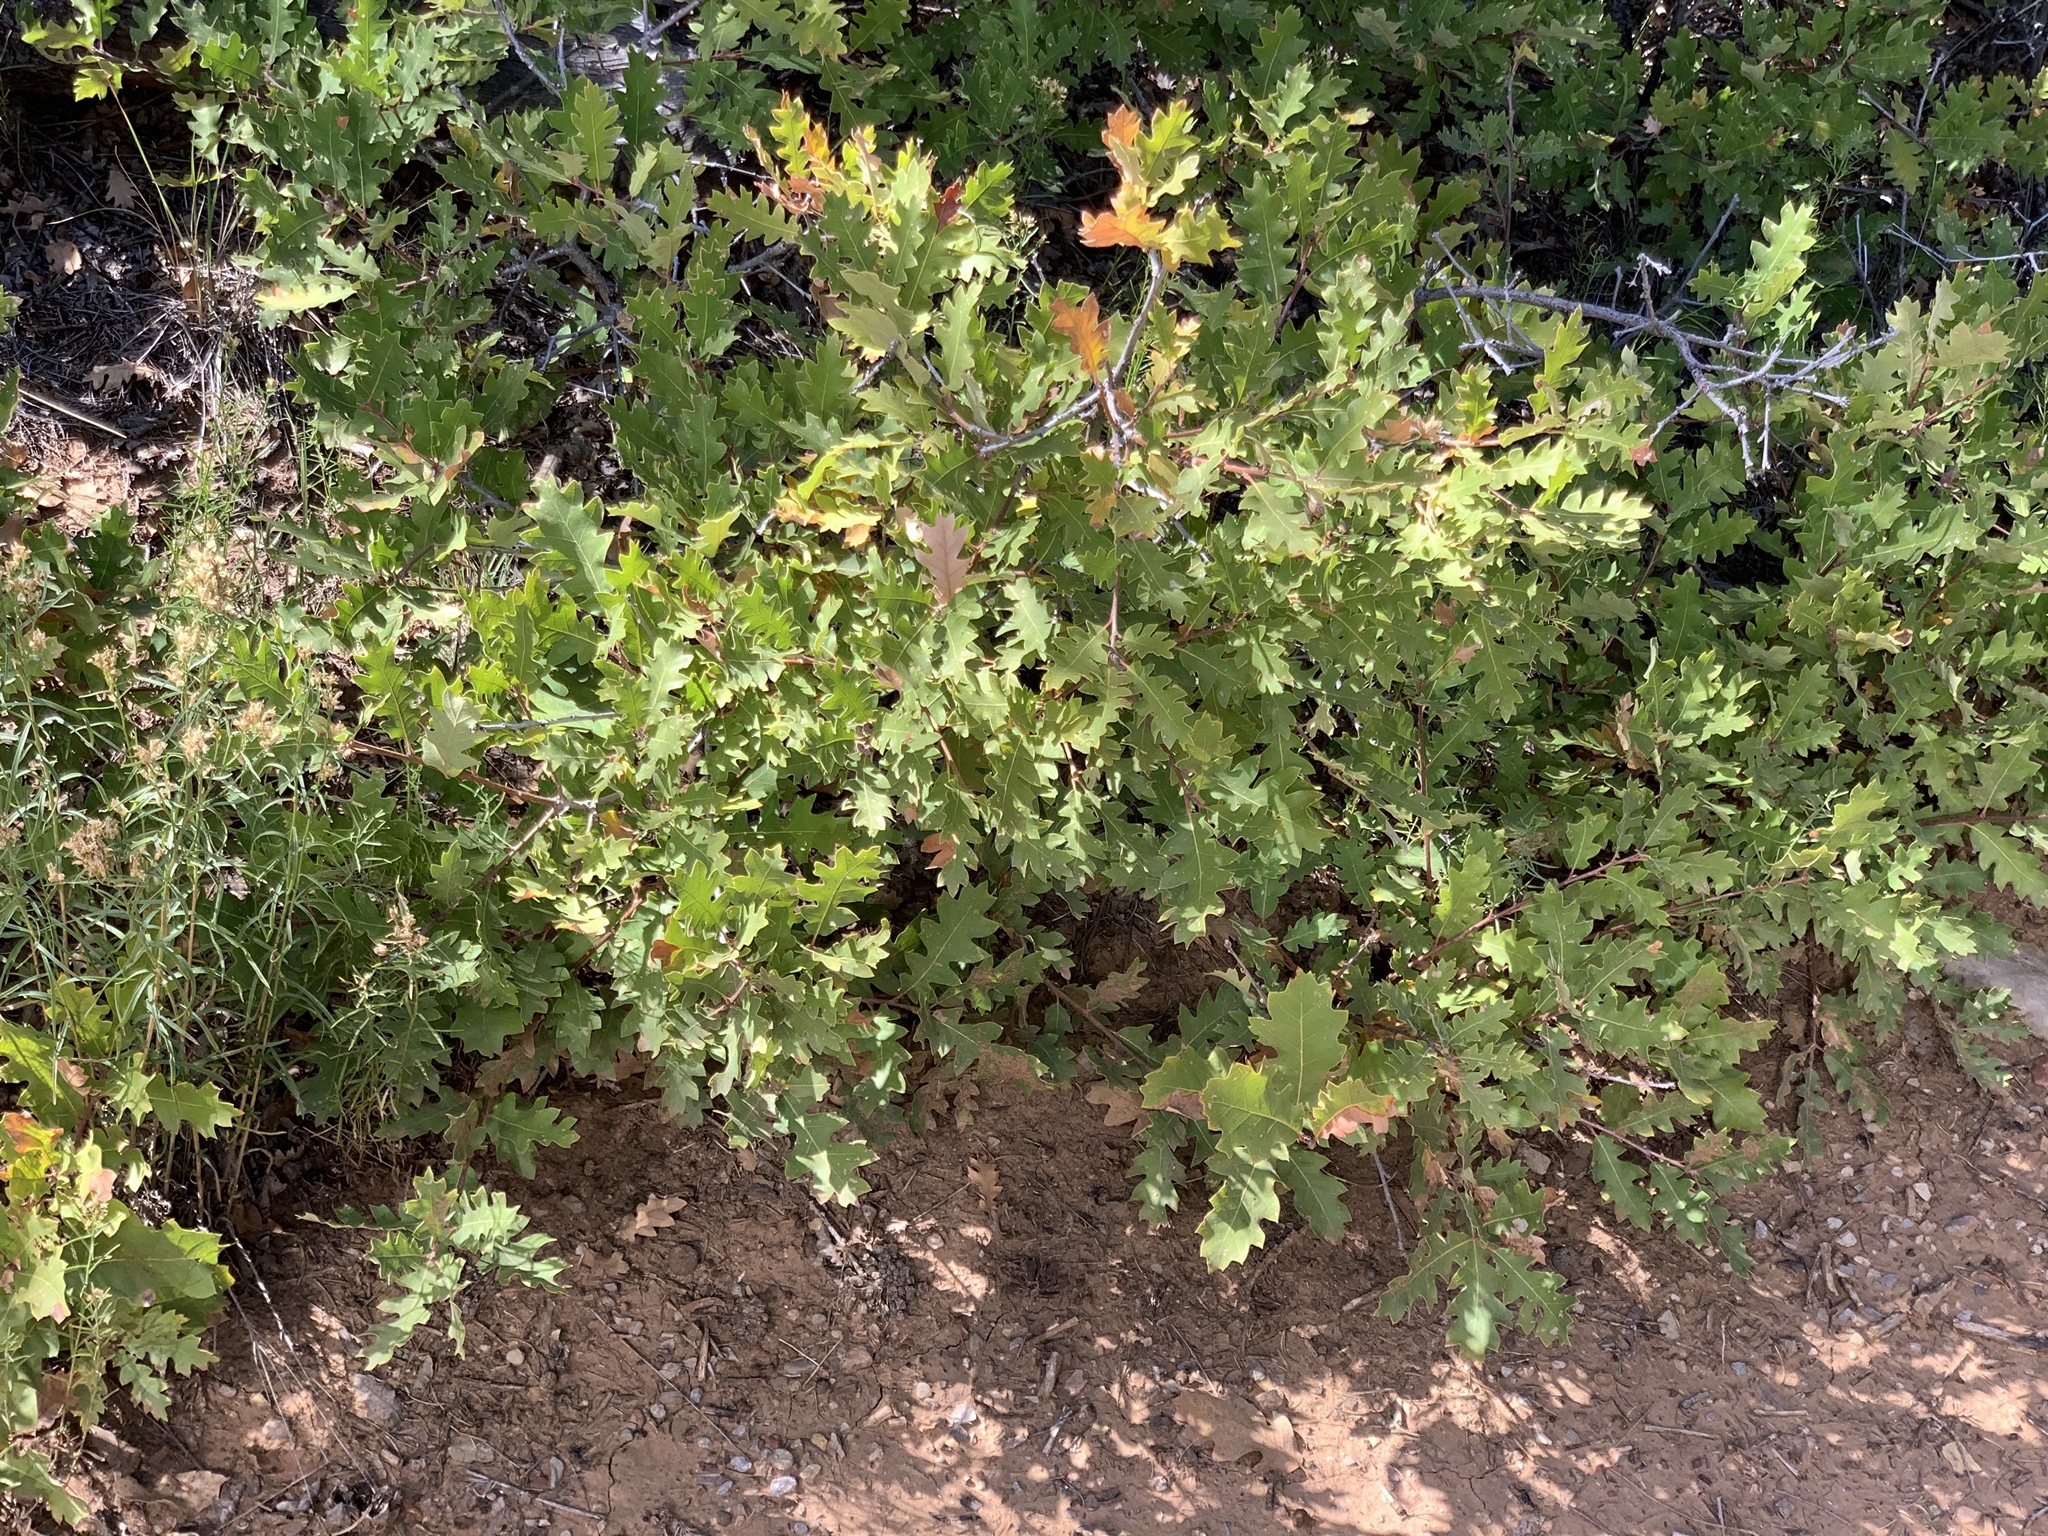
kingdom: Plantae
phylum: Tracheophyta
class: Magnoliopsida
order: Fagales
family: Fagaceae
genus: Quercus
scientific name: Quercus gambelii
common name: Gambel oak
